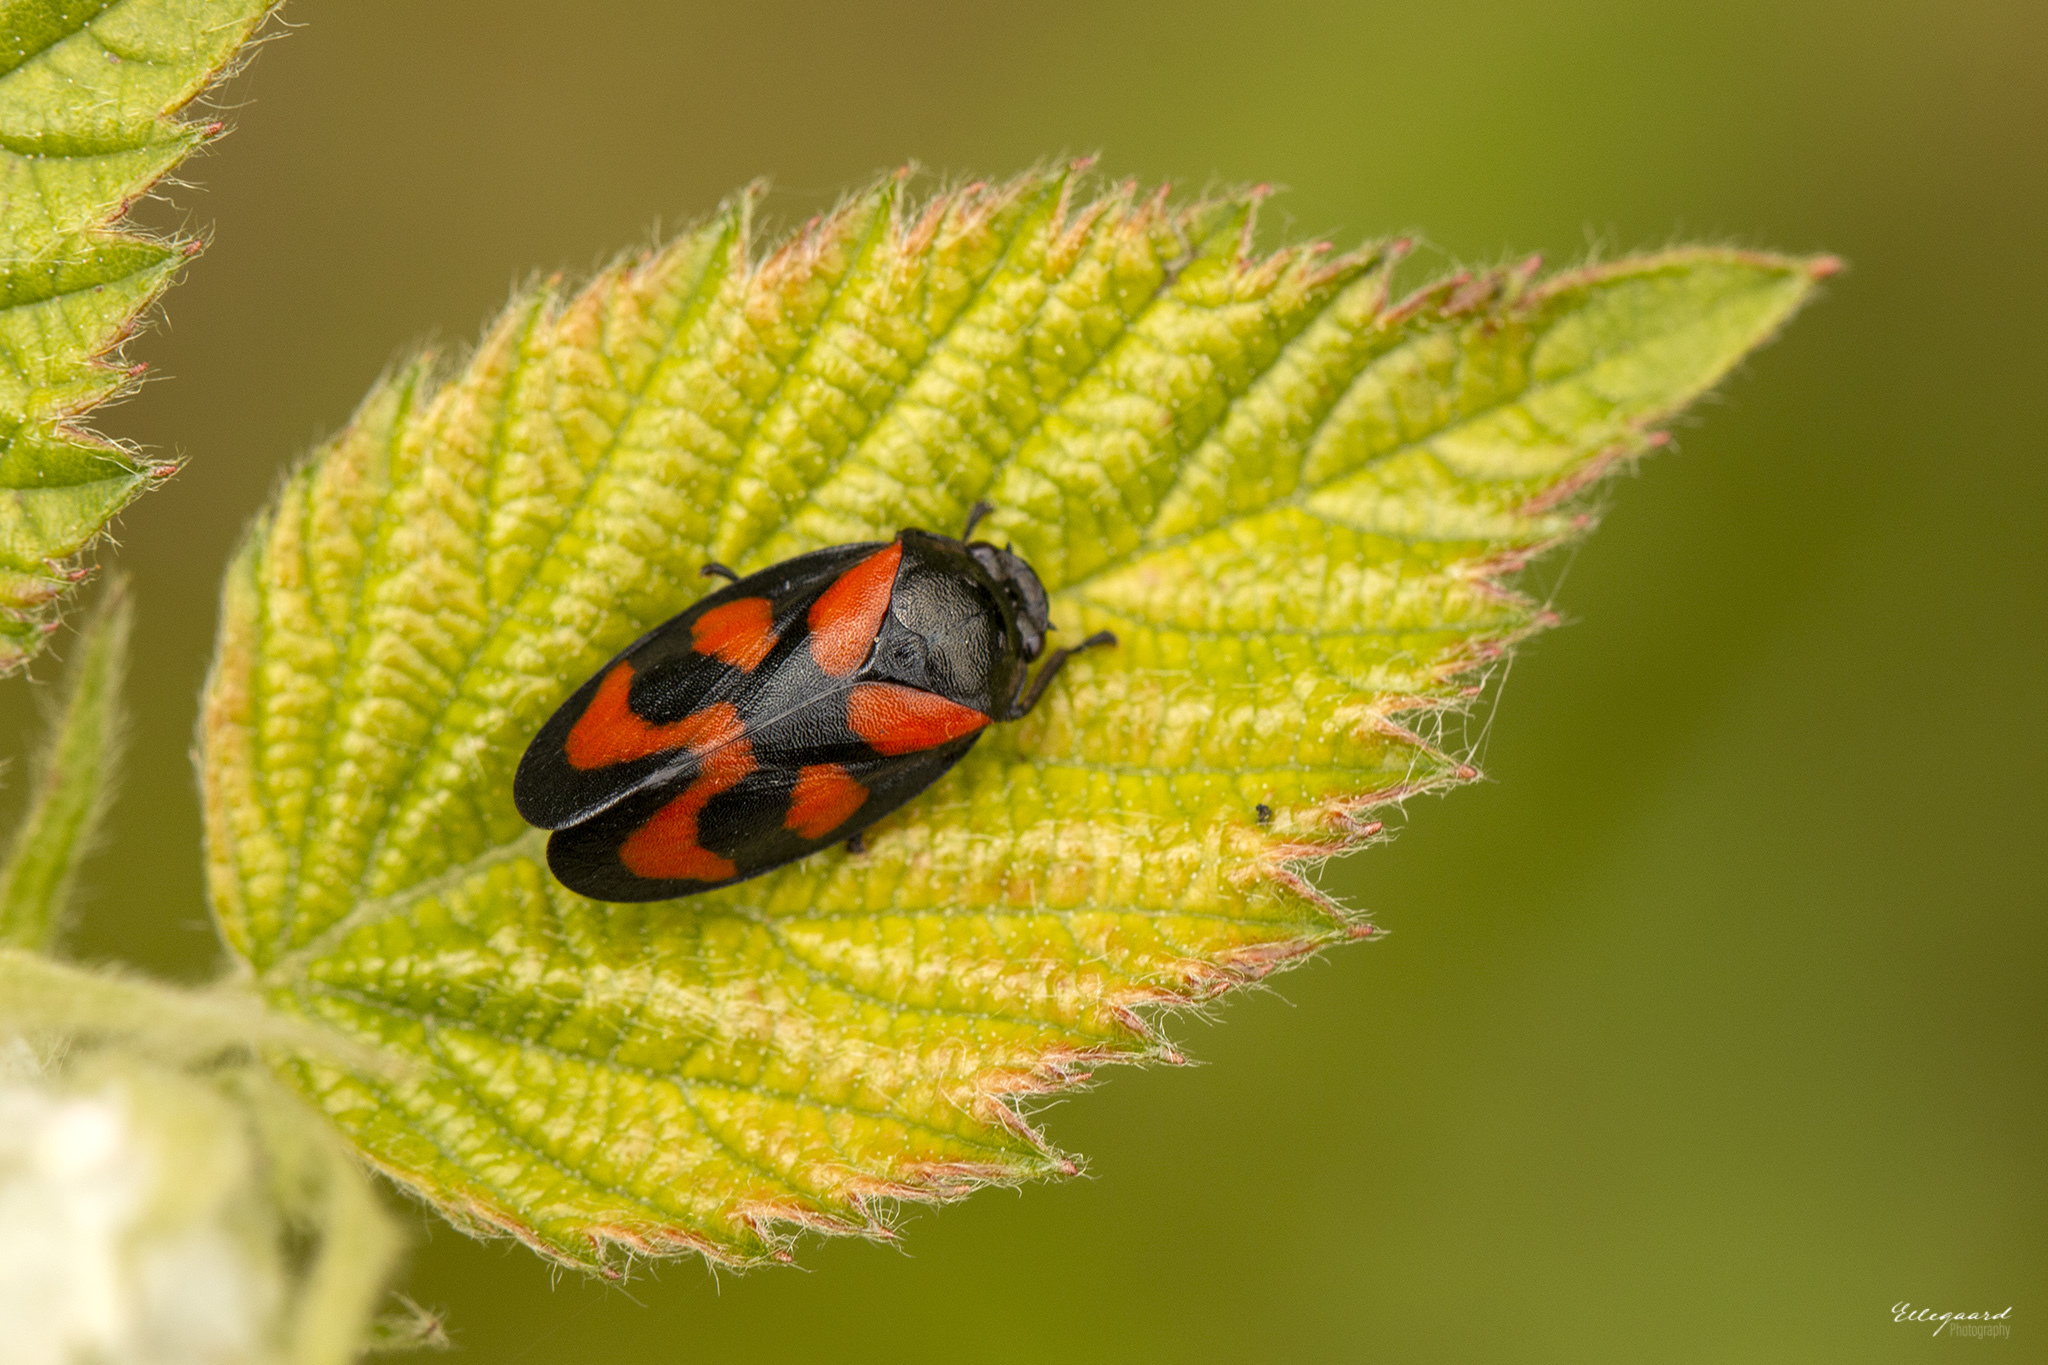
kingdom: Animalia
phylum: Arthropoda
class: Insecta
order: Hemiptera
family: Cercopidae
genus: Cercopis
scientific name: Cercopis vulnerata
